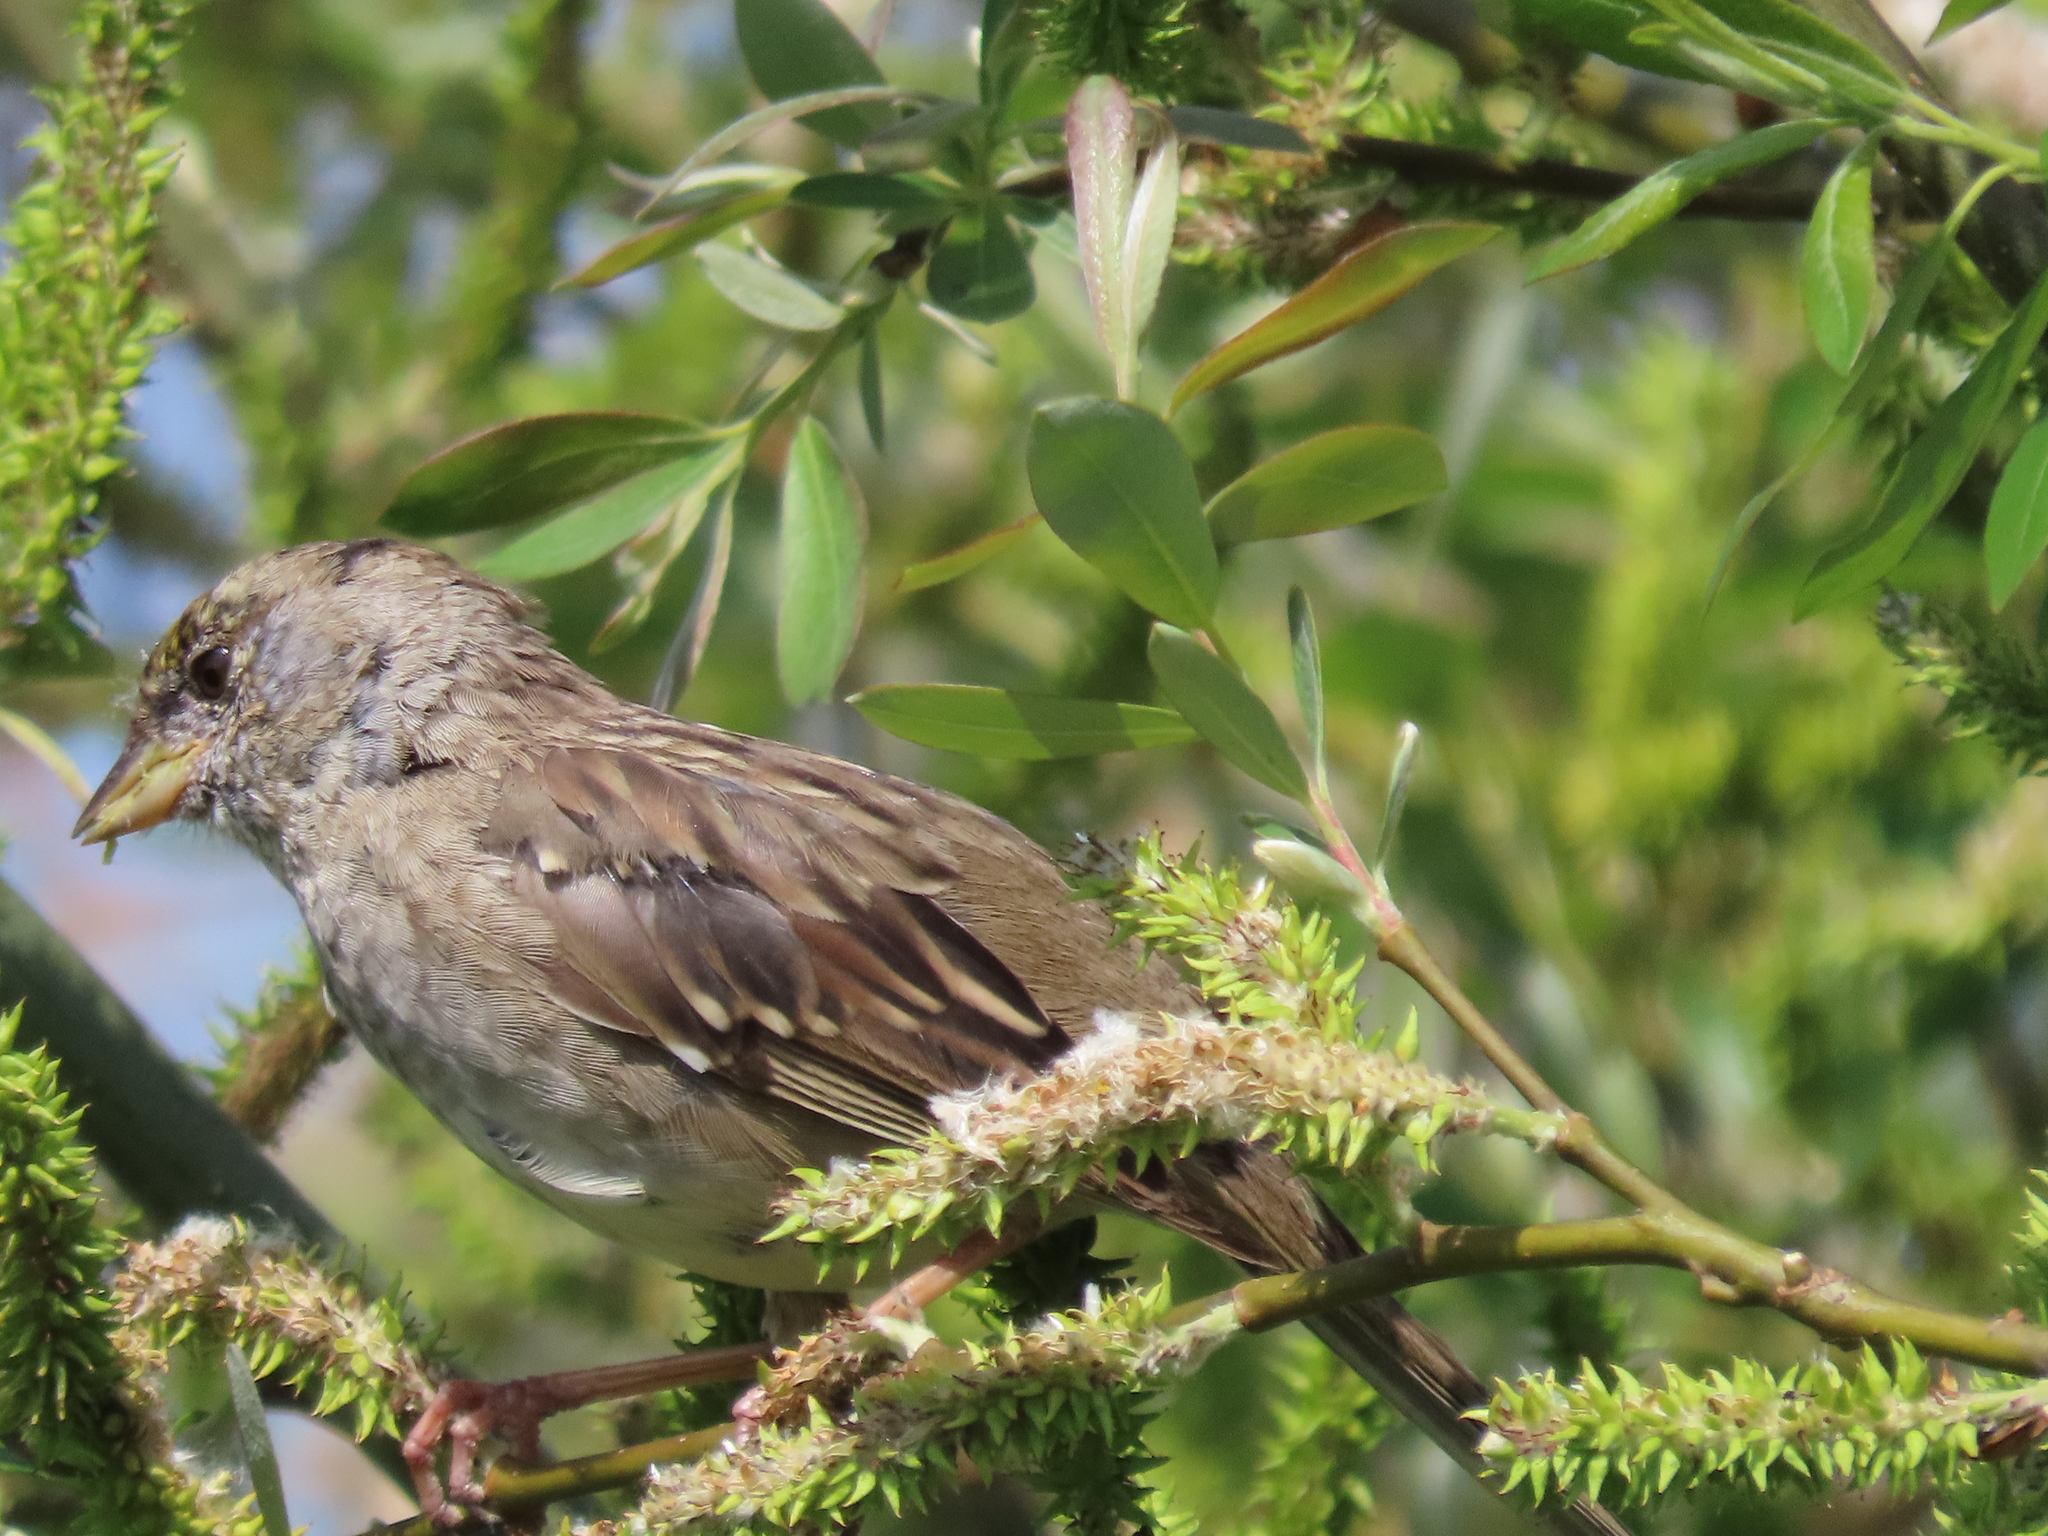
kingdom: Animalia
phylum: Chordata
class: Aves
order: Passeriformes
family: Passerellidae
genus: Zonotrichia
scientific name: Zonotrichia atricapilla
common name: Golden-crowned sparrow
